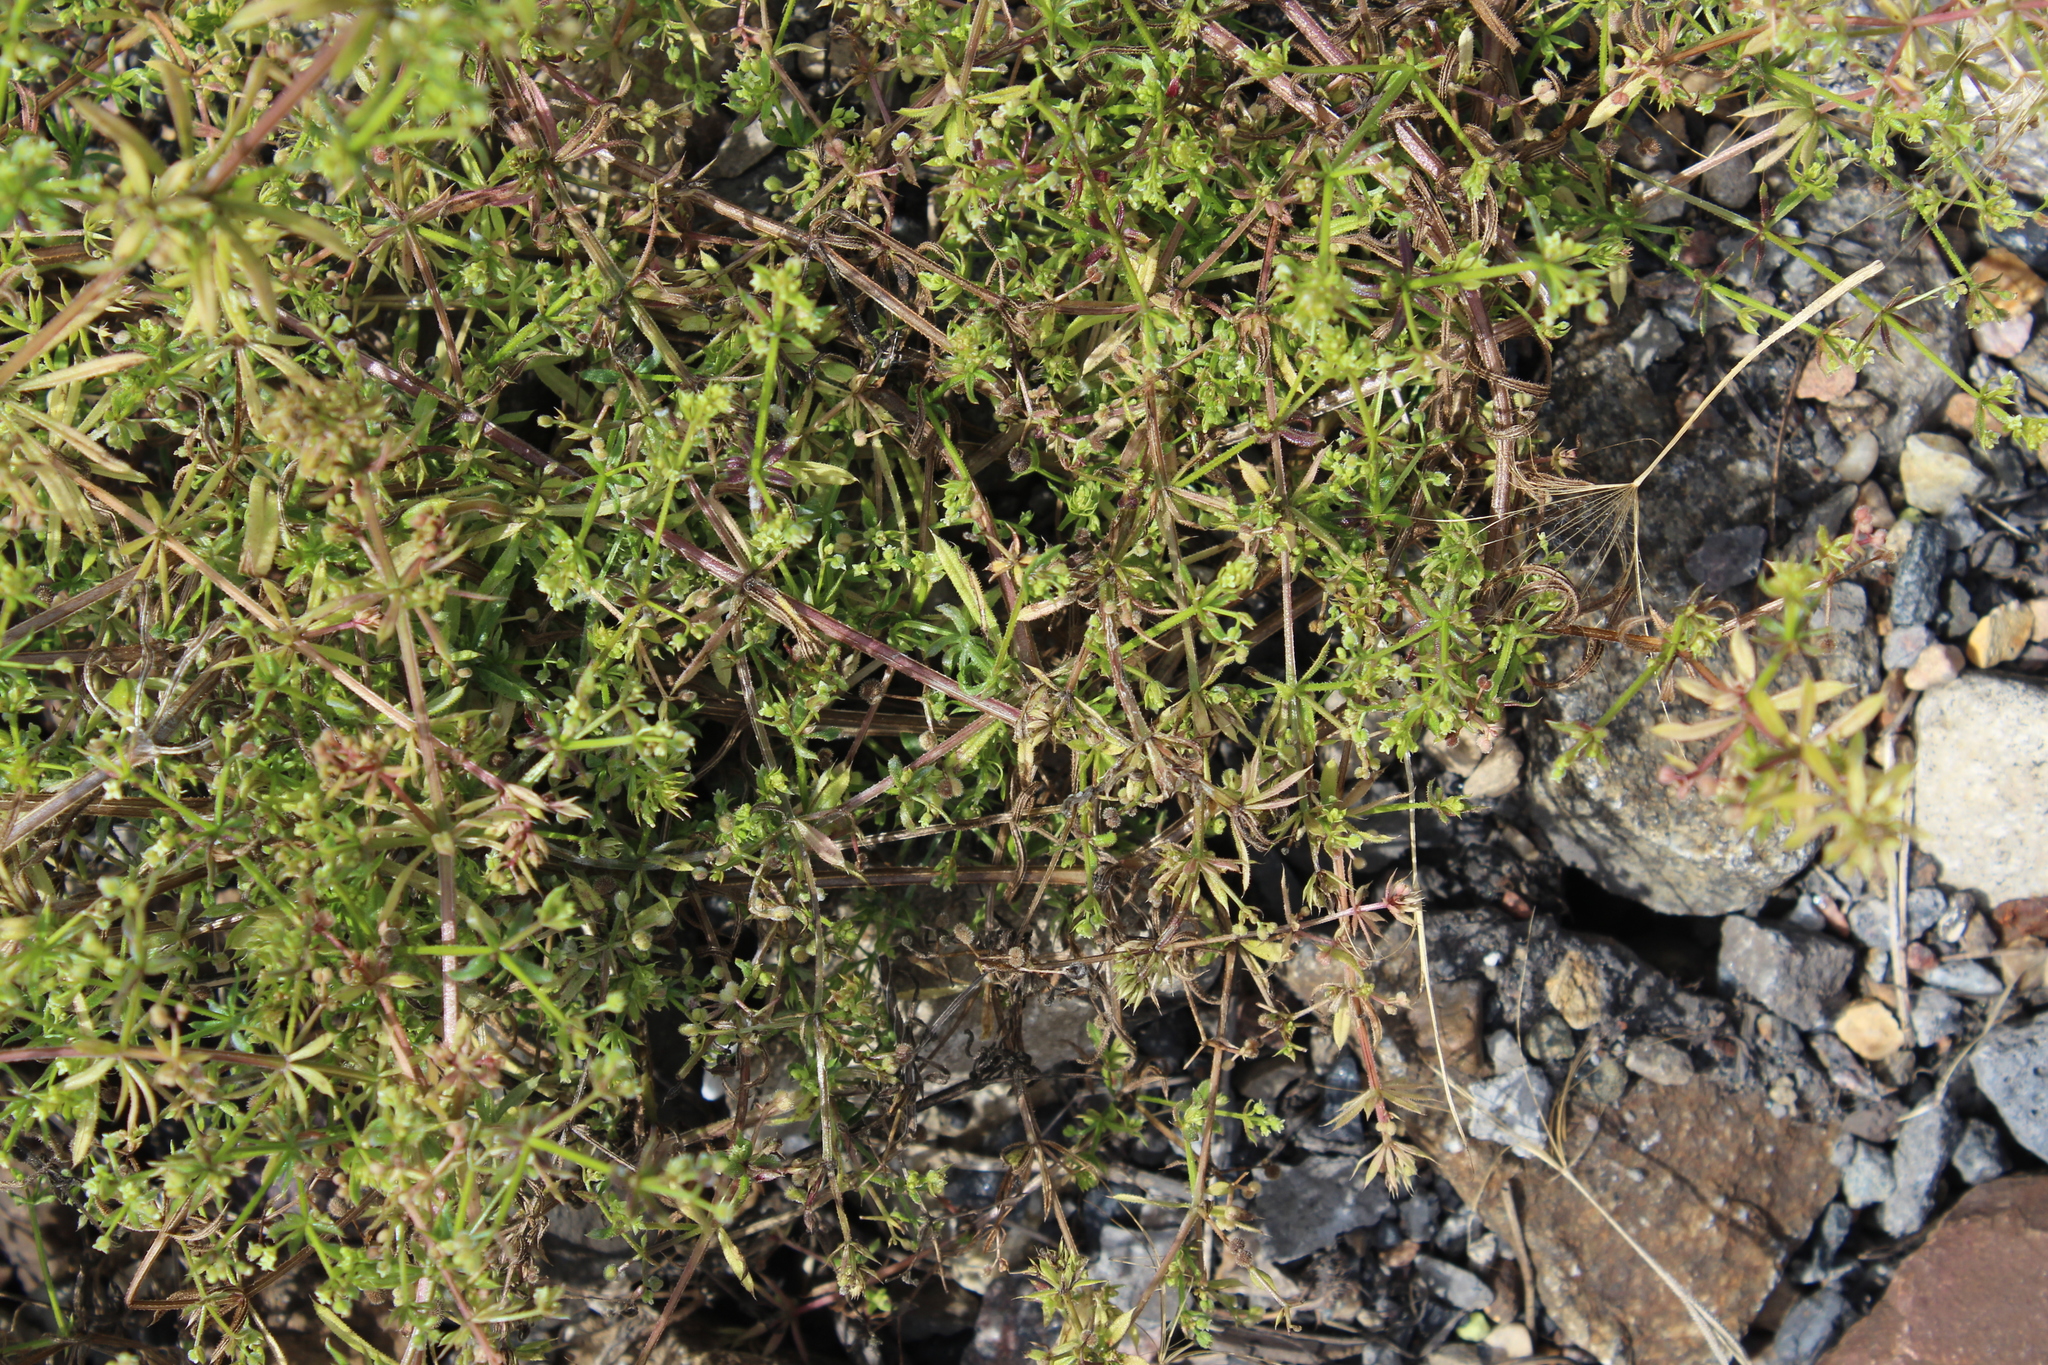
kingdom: Plantae
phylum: Tracheophyta
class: Magnoliopsida
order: Gentianales
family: Rubiaceae
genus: Galium
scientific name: Galium spurium
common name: False cleavers
